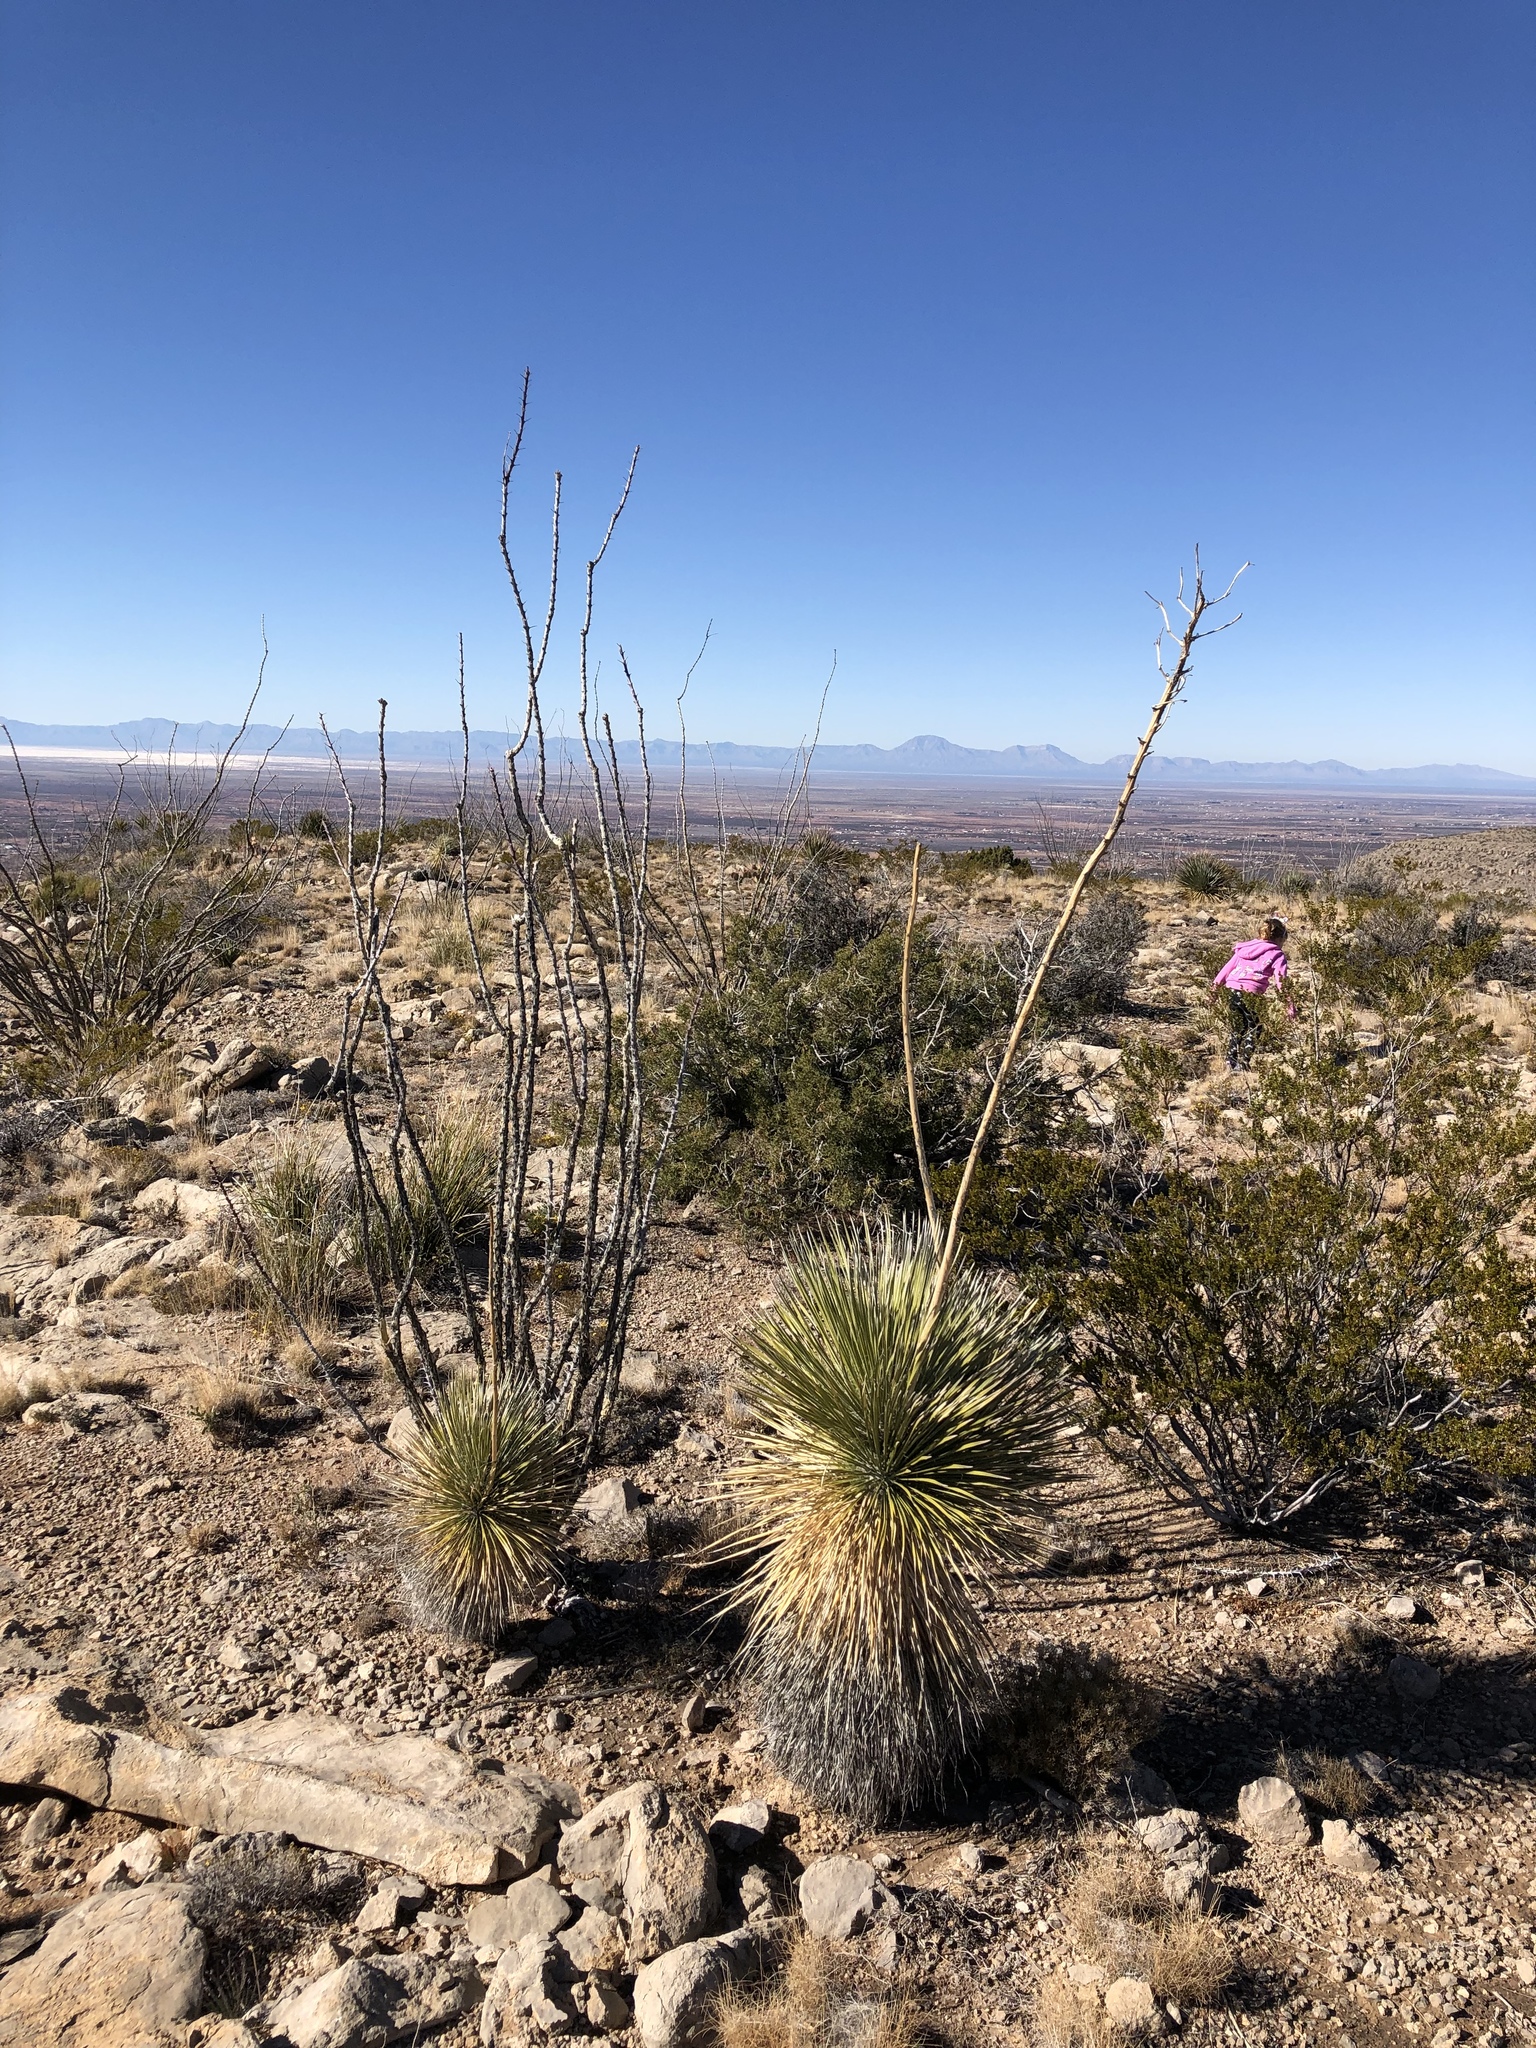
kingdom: Plantae
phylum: Tracheophyta
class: Liliopsida
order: Asparagales
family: Asparagaceae
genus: Yucca
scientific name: Yucca elata
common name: Palmella
